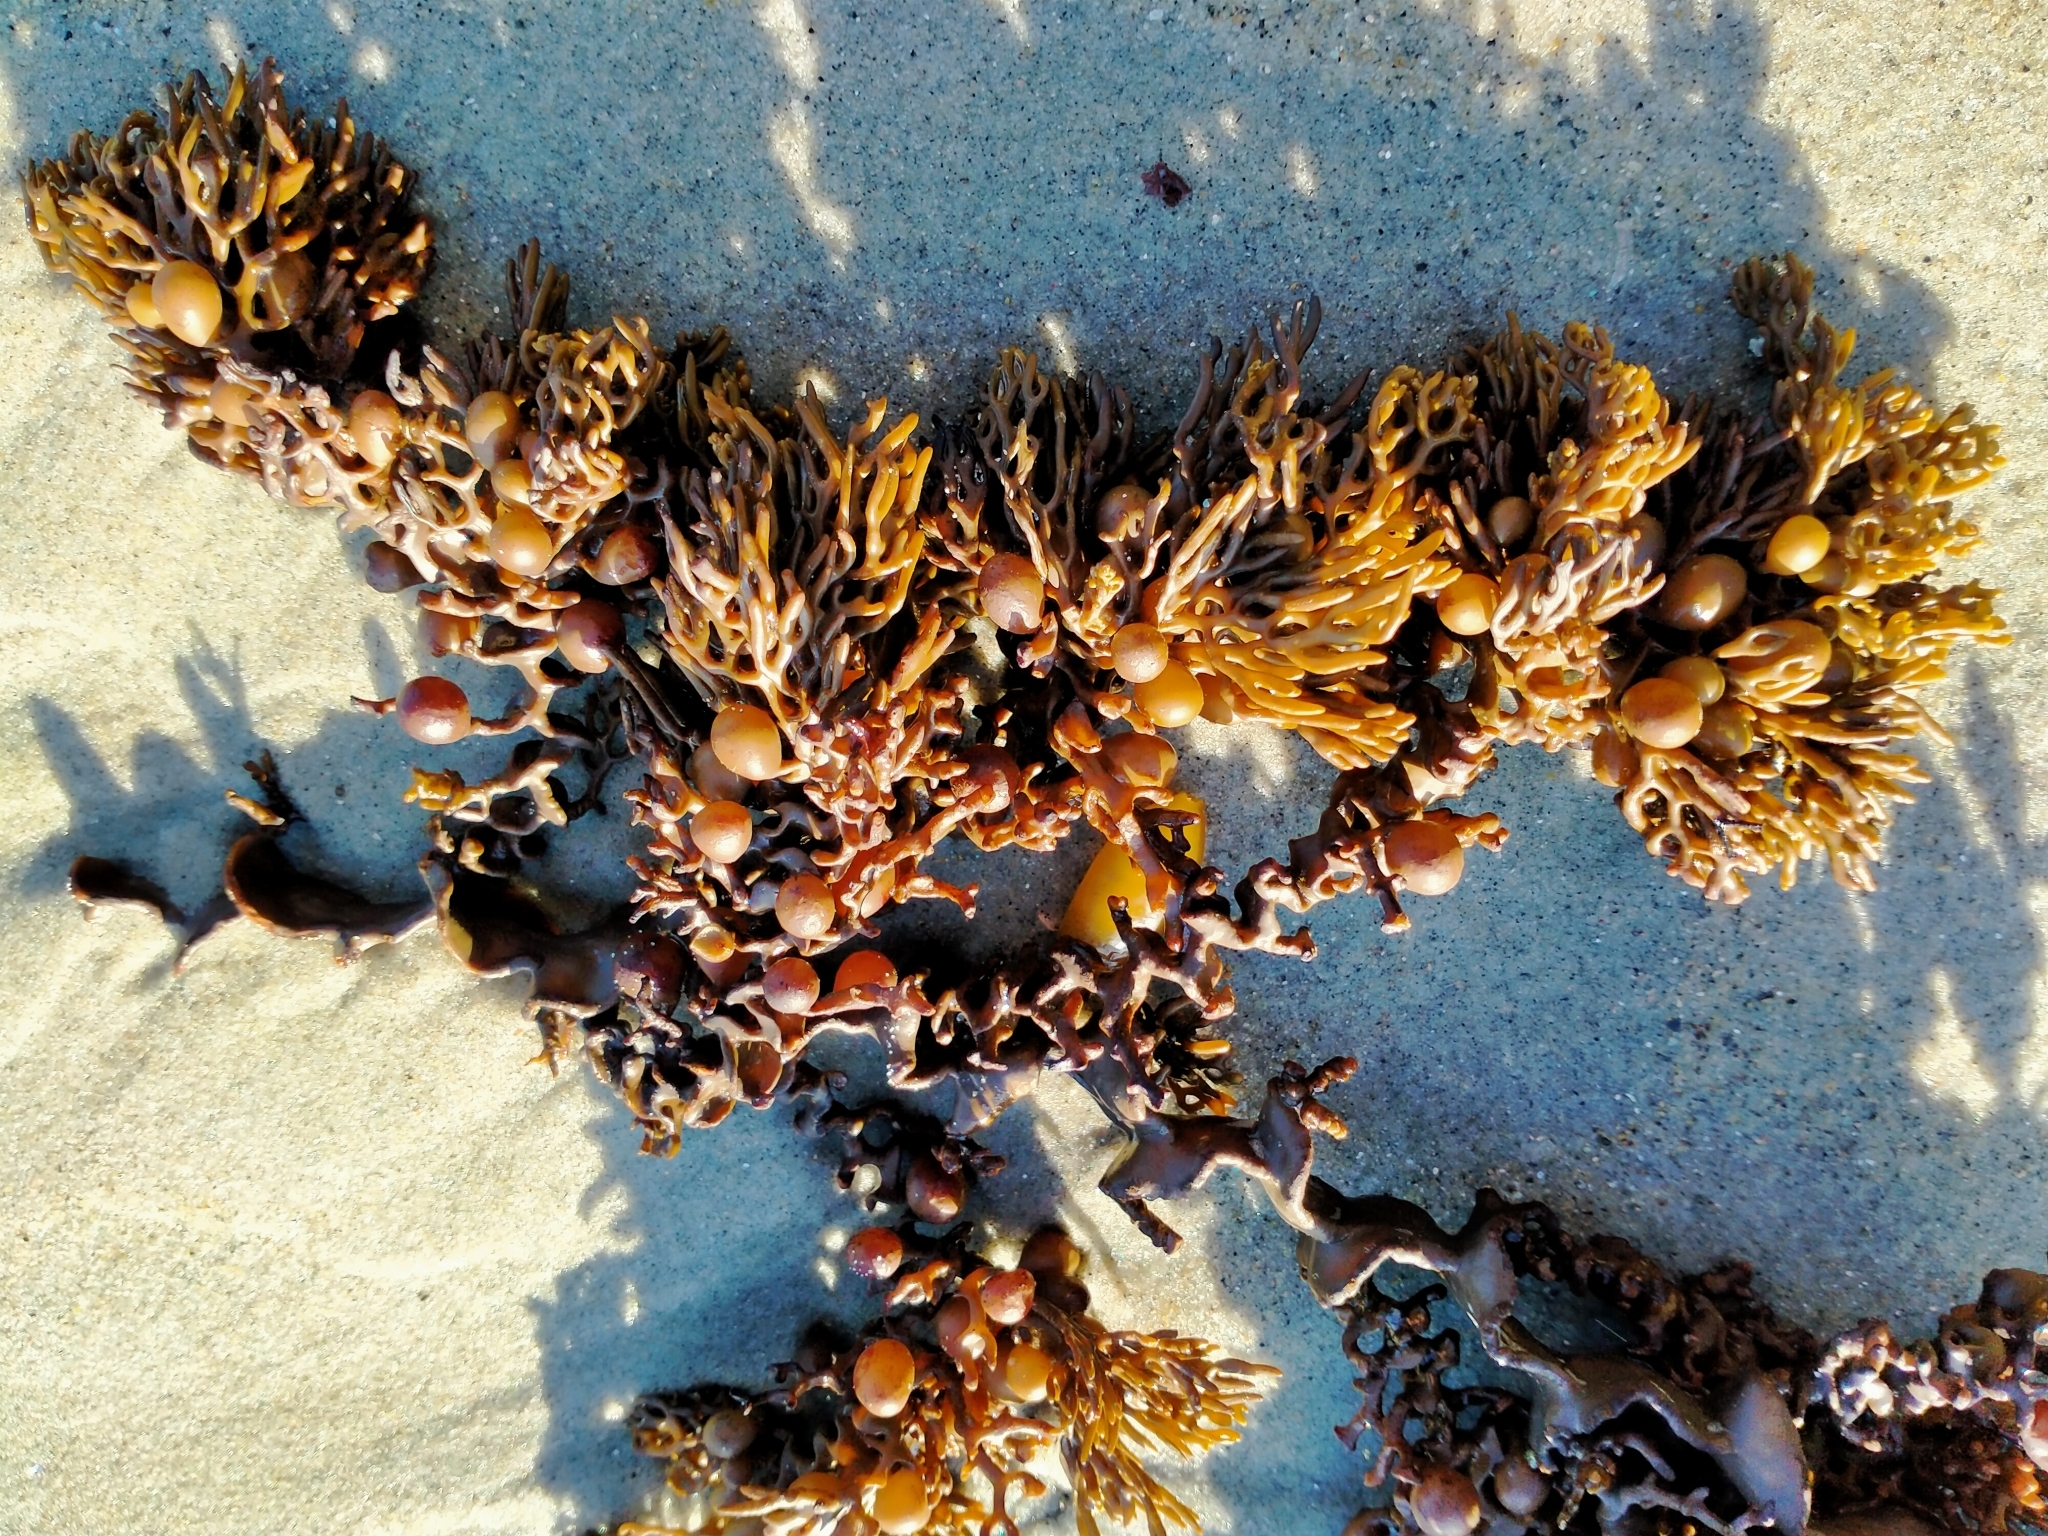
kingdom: Chromista
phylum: Ochrophyta
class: Phaeophyceae
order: Fucales
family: Sargassaceae
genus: Cystophora
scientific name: Cystophora scalaris
